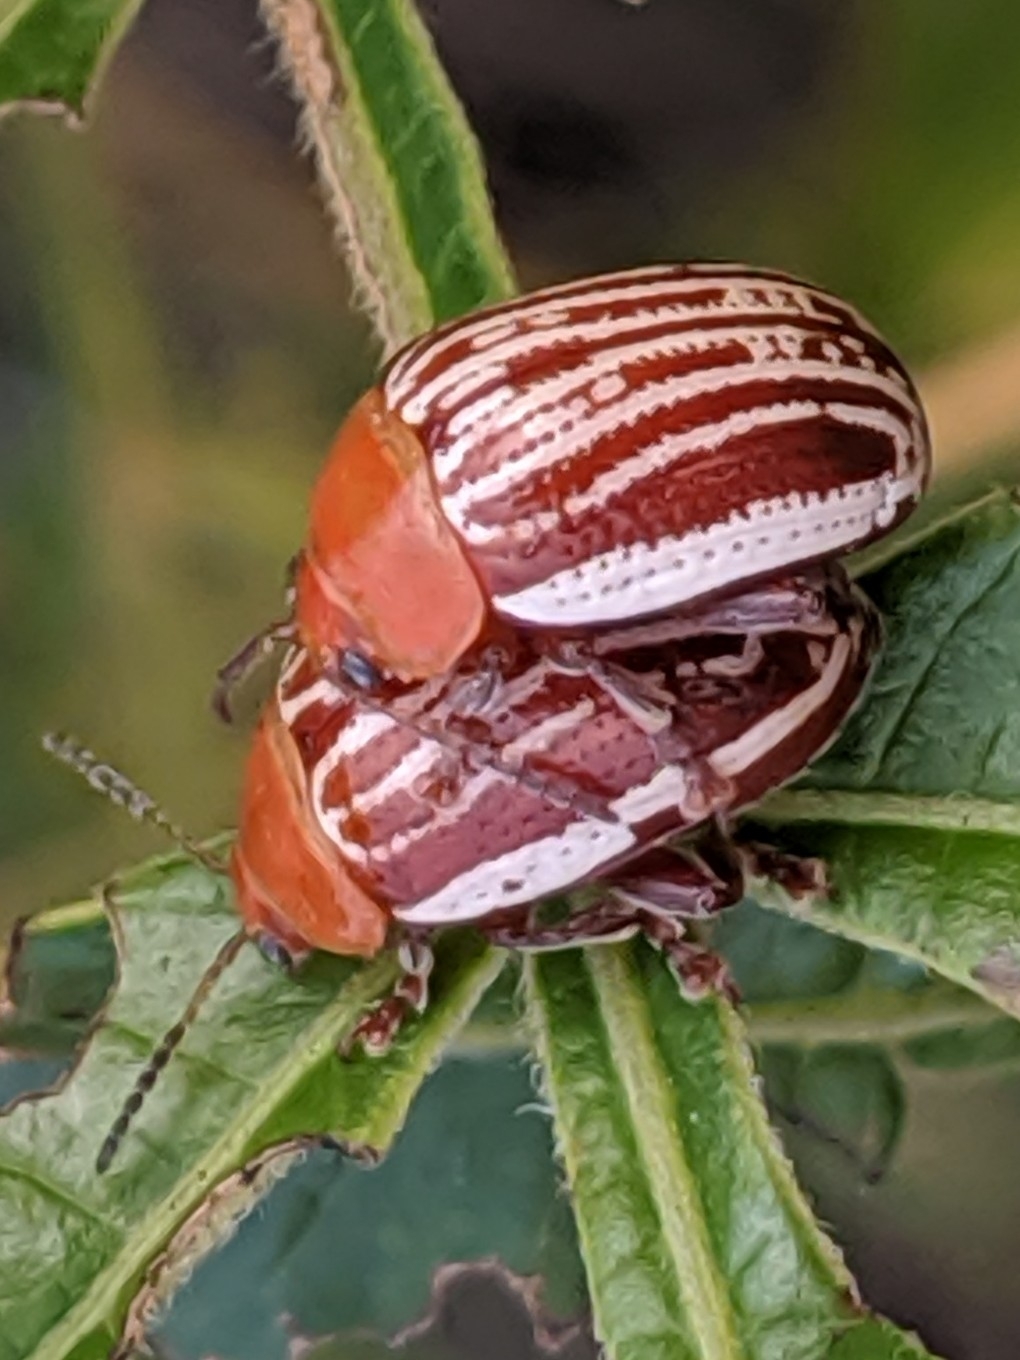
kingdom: Animalia
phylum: Arthropoda
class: Insecta
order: Coleoptera
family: Chrysomelidae
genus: Blepharida
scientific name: Blepharida rhois
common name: Sumac flea beetle
